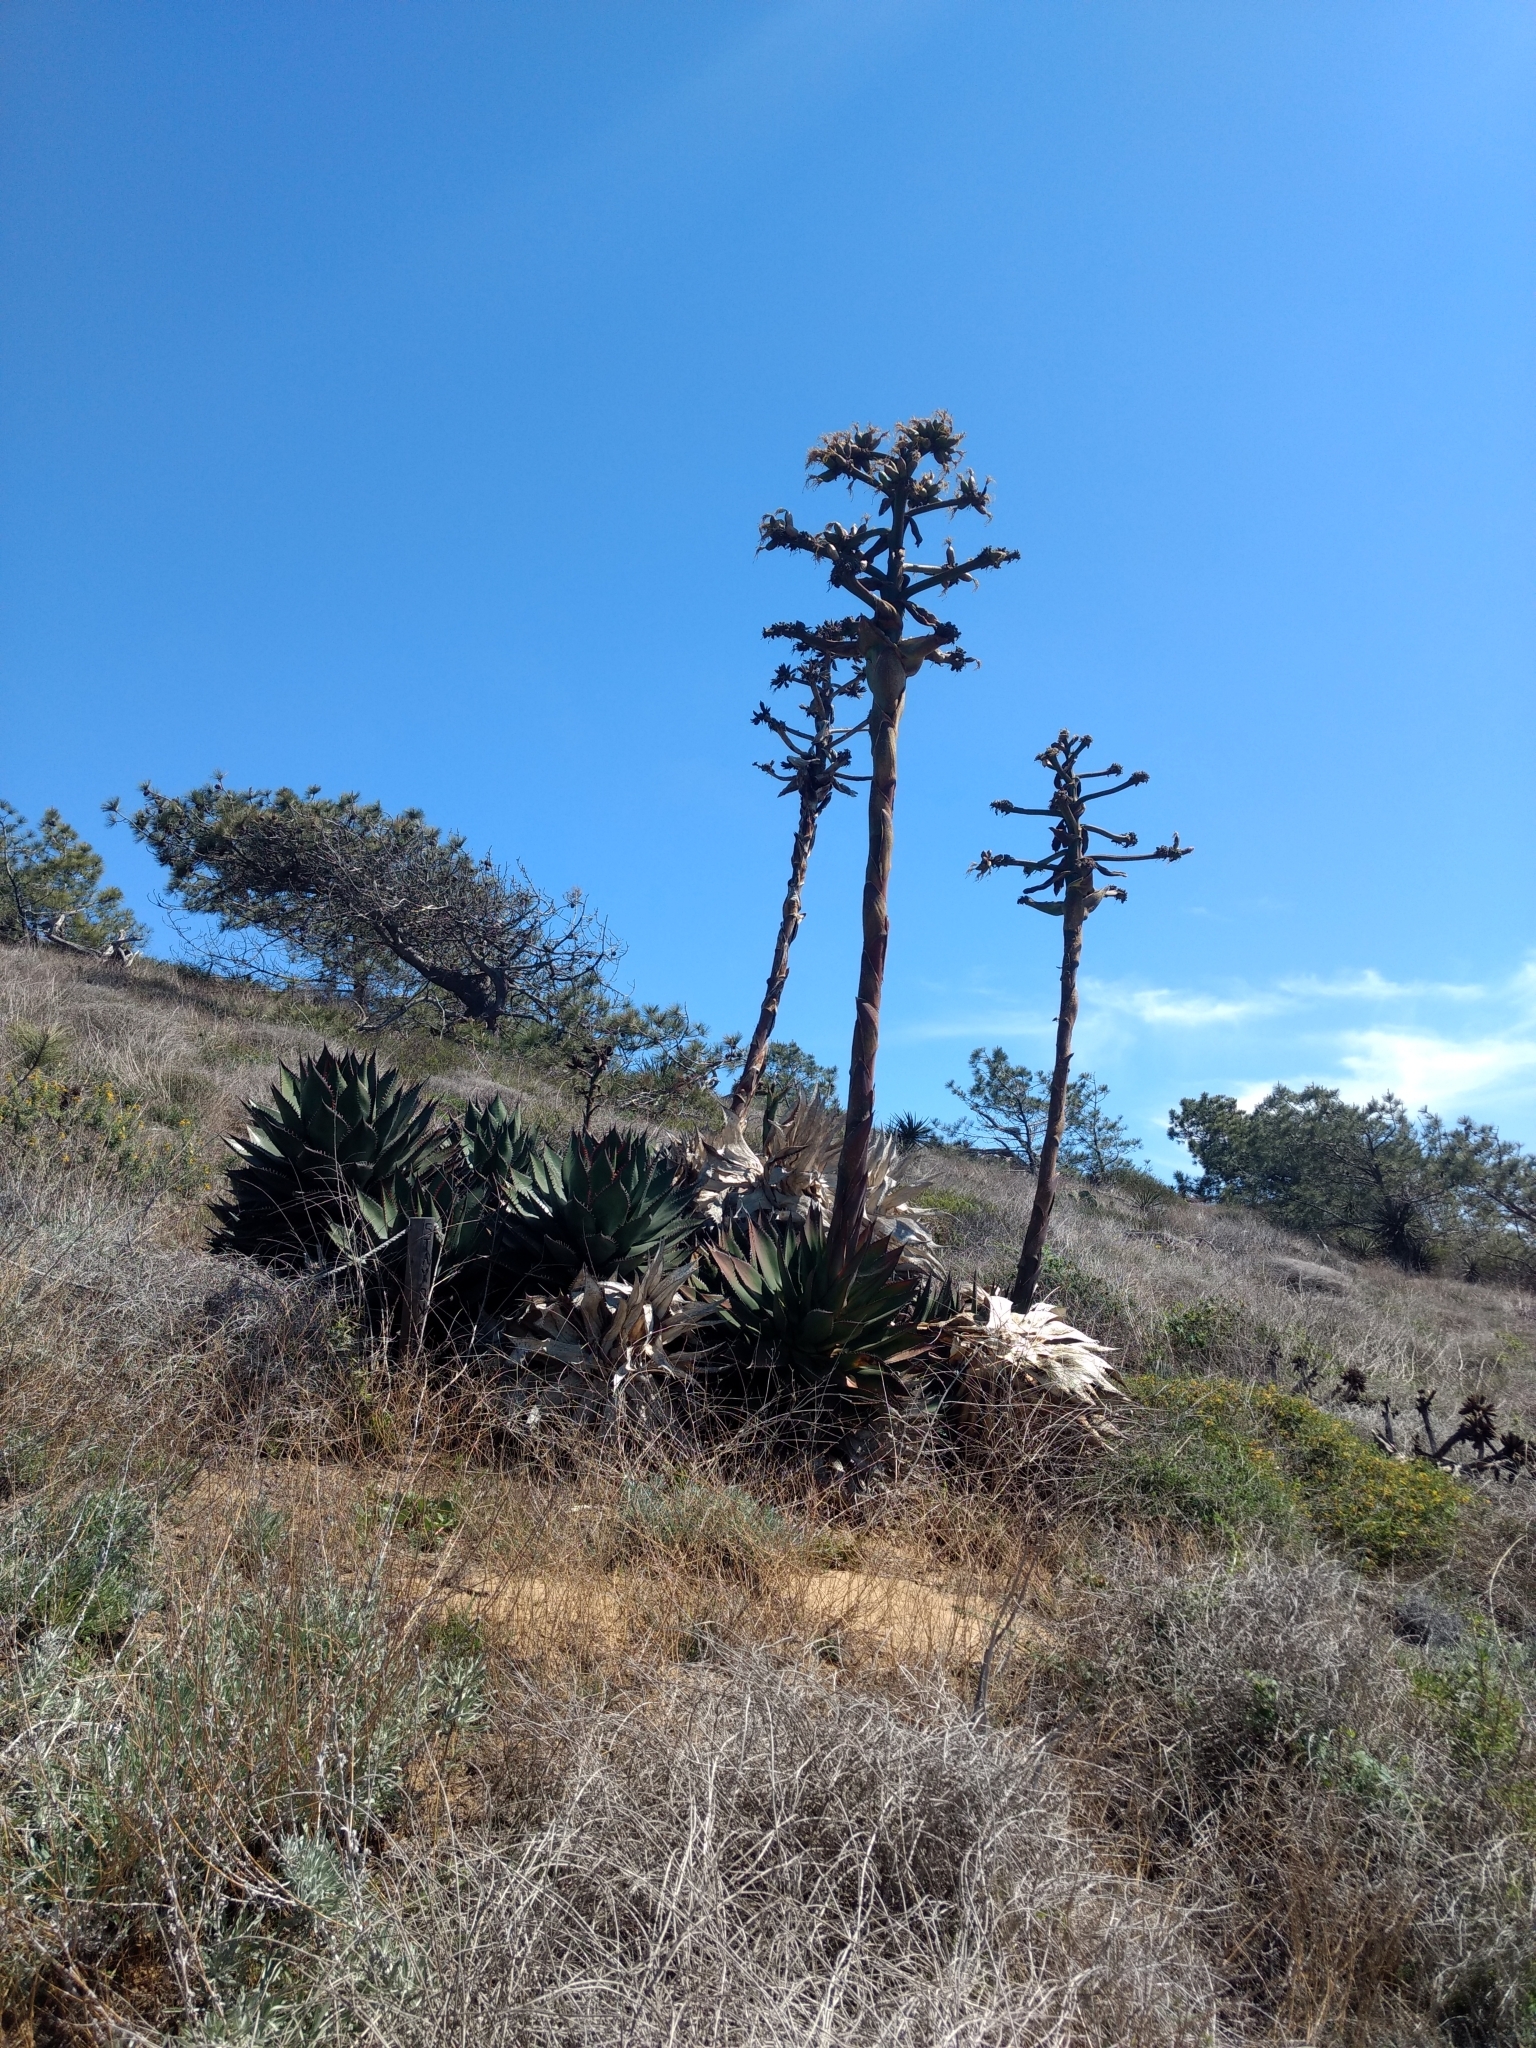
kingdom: Plantae
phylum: Tracheophyta
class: Liliopsida
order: Asparagales
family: Asparagaceae
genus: Agave
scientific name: Agave shawii
